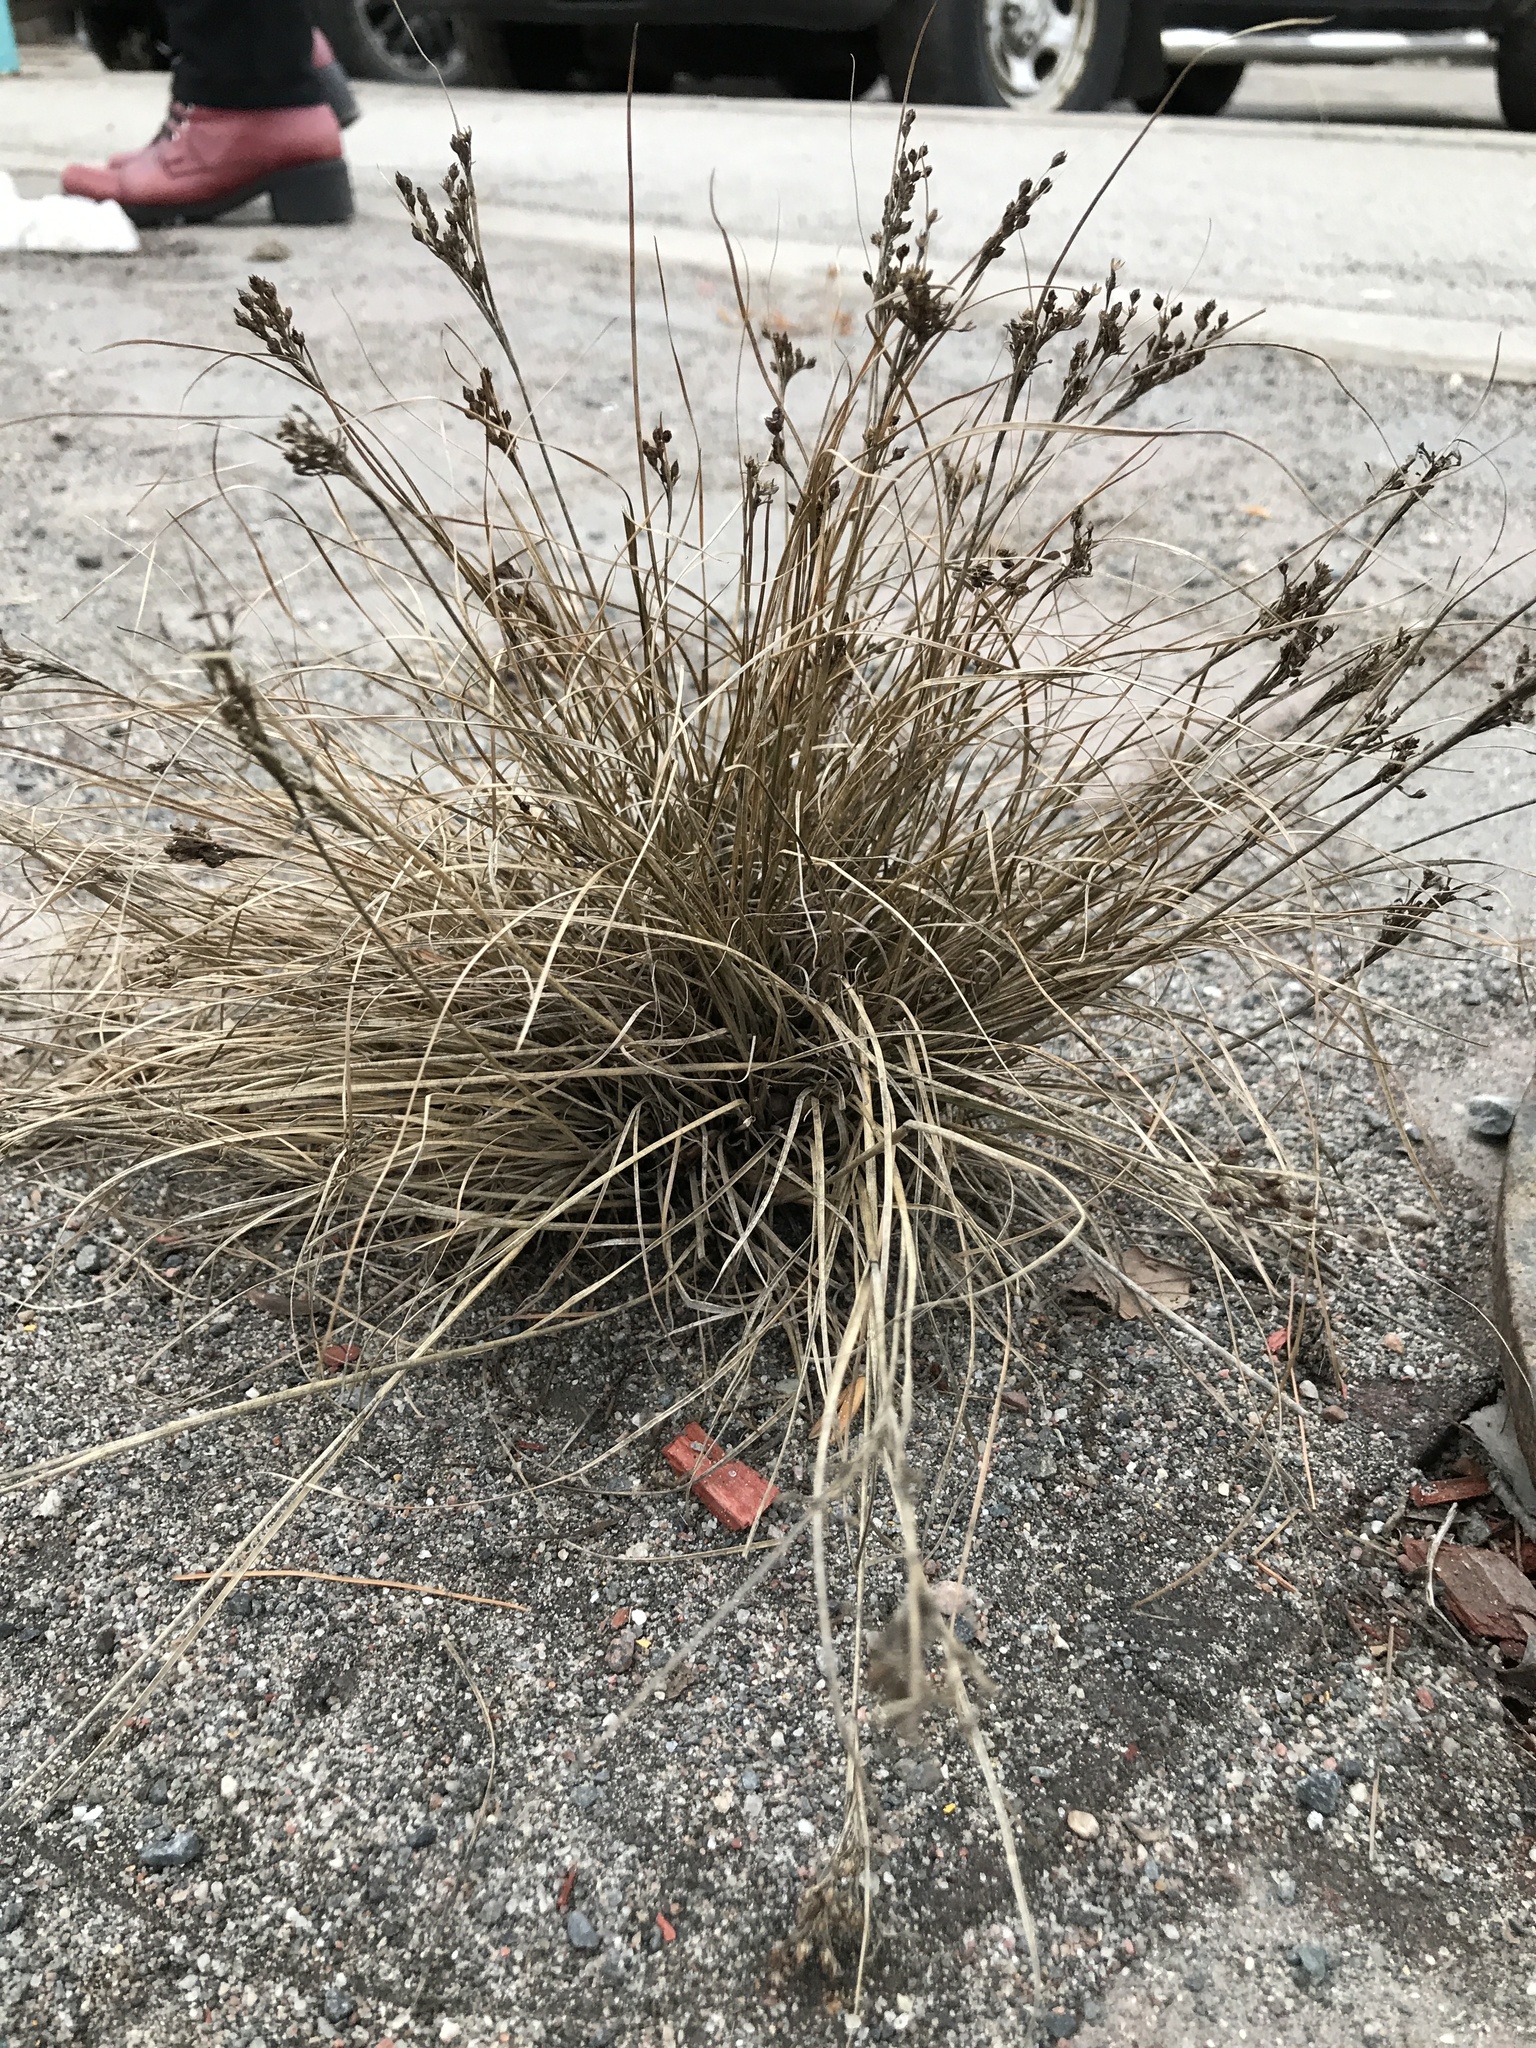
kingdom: Plantae
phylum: Tracheophyta
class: Liliopsida
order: Poales
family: Juncaceae
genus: Juncus
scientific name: Juncus compressus
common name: Round-fruited rush
